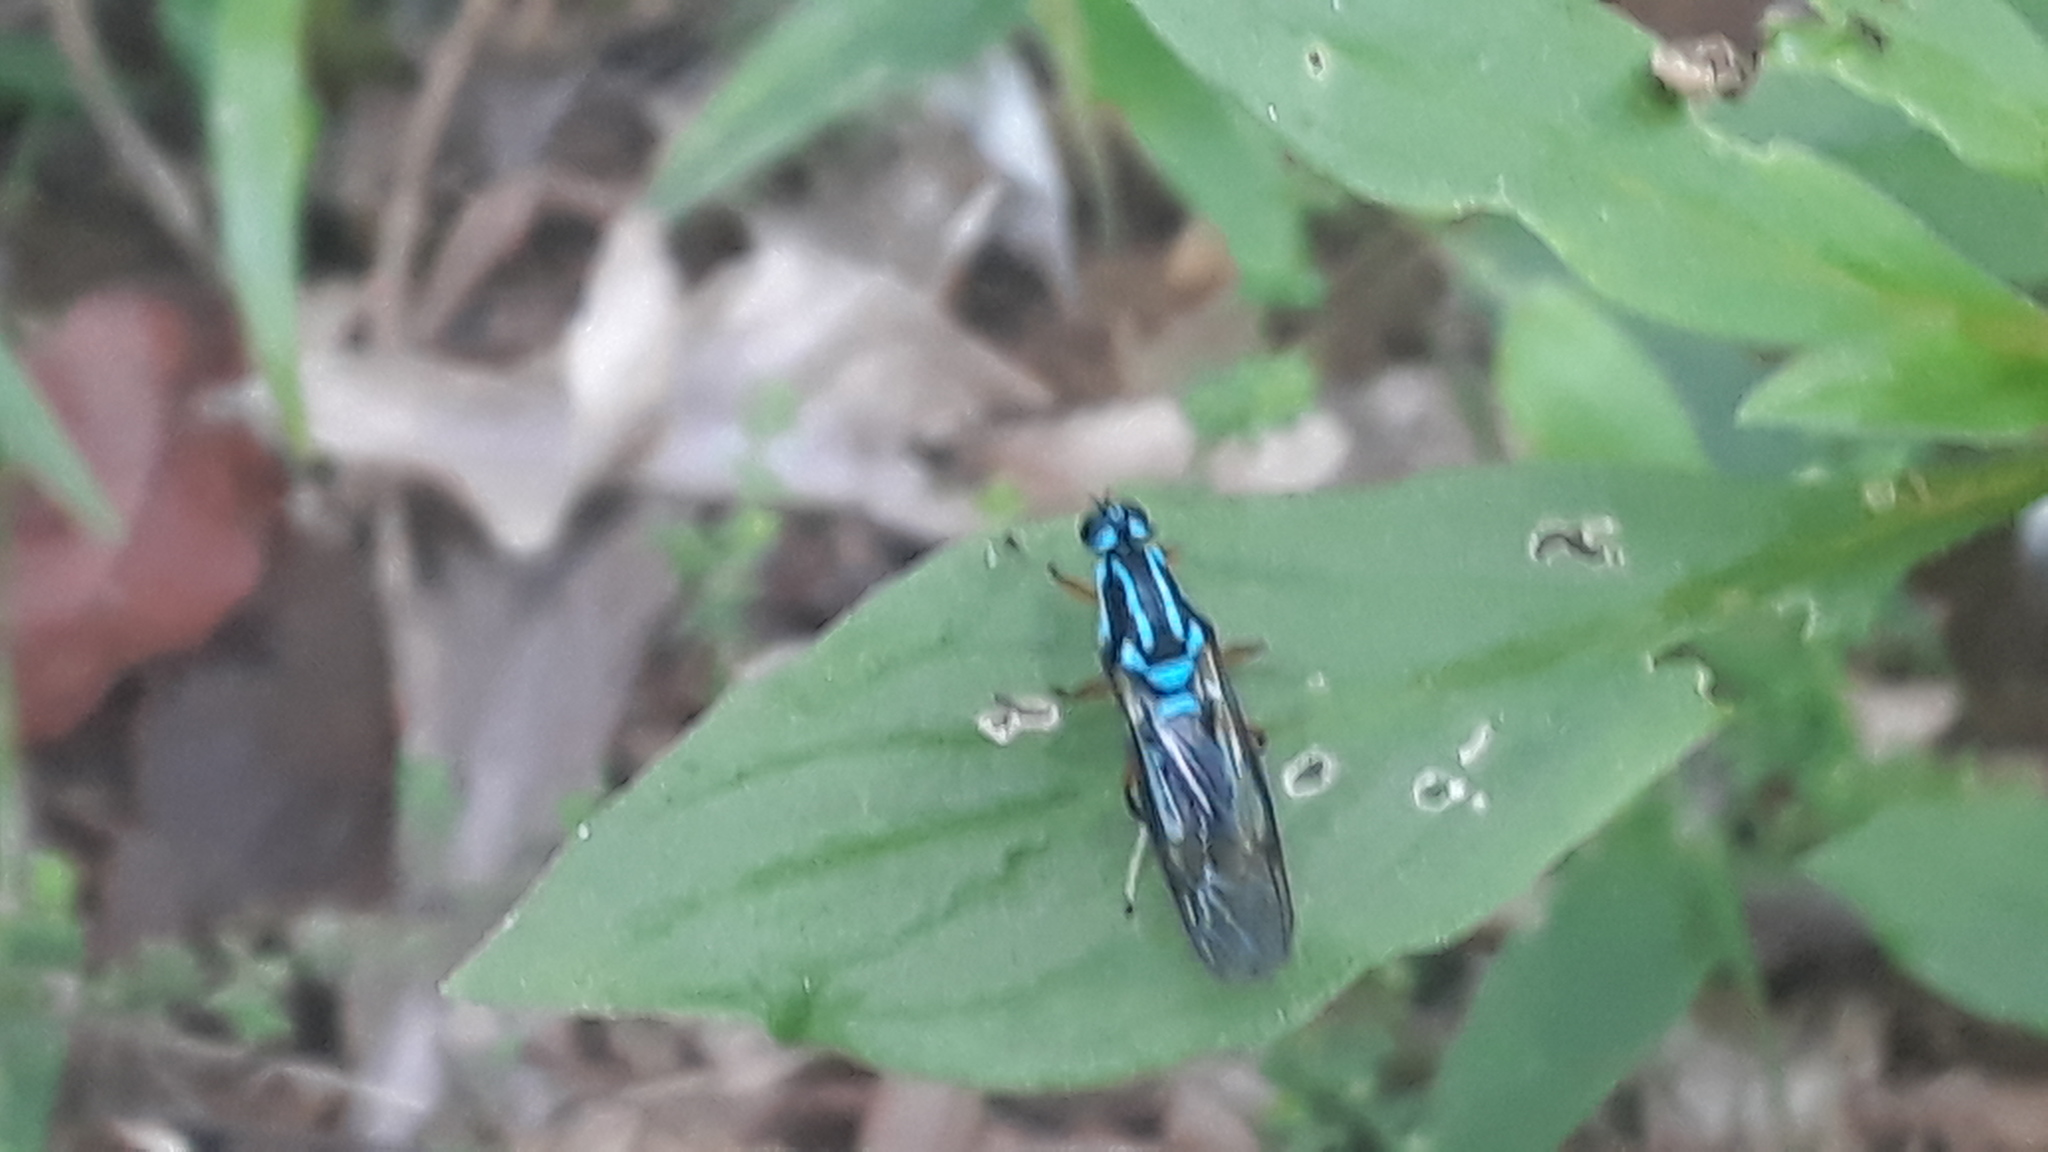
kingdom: Animalia
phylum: Arthropoda
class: Insecta
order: Diptera
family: Stratiomyidae
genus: Raphiocera
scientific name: Raphiocera armata
